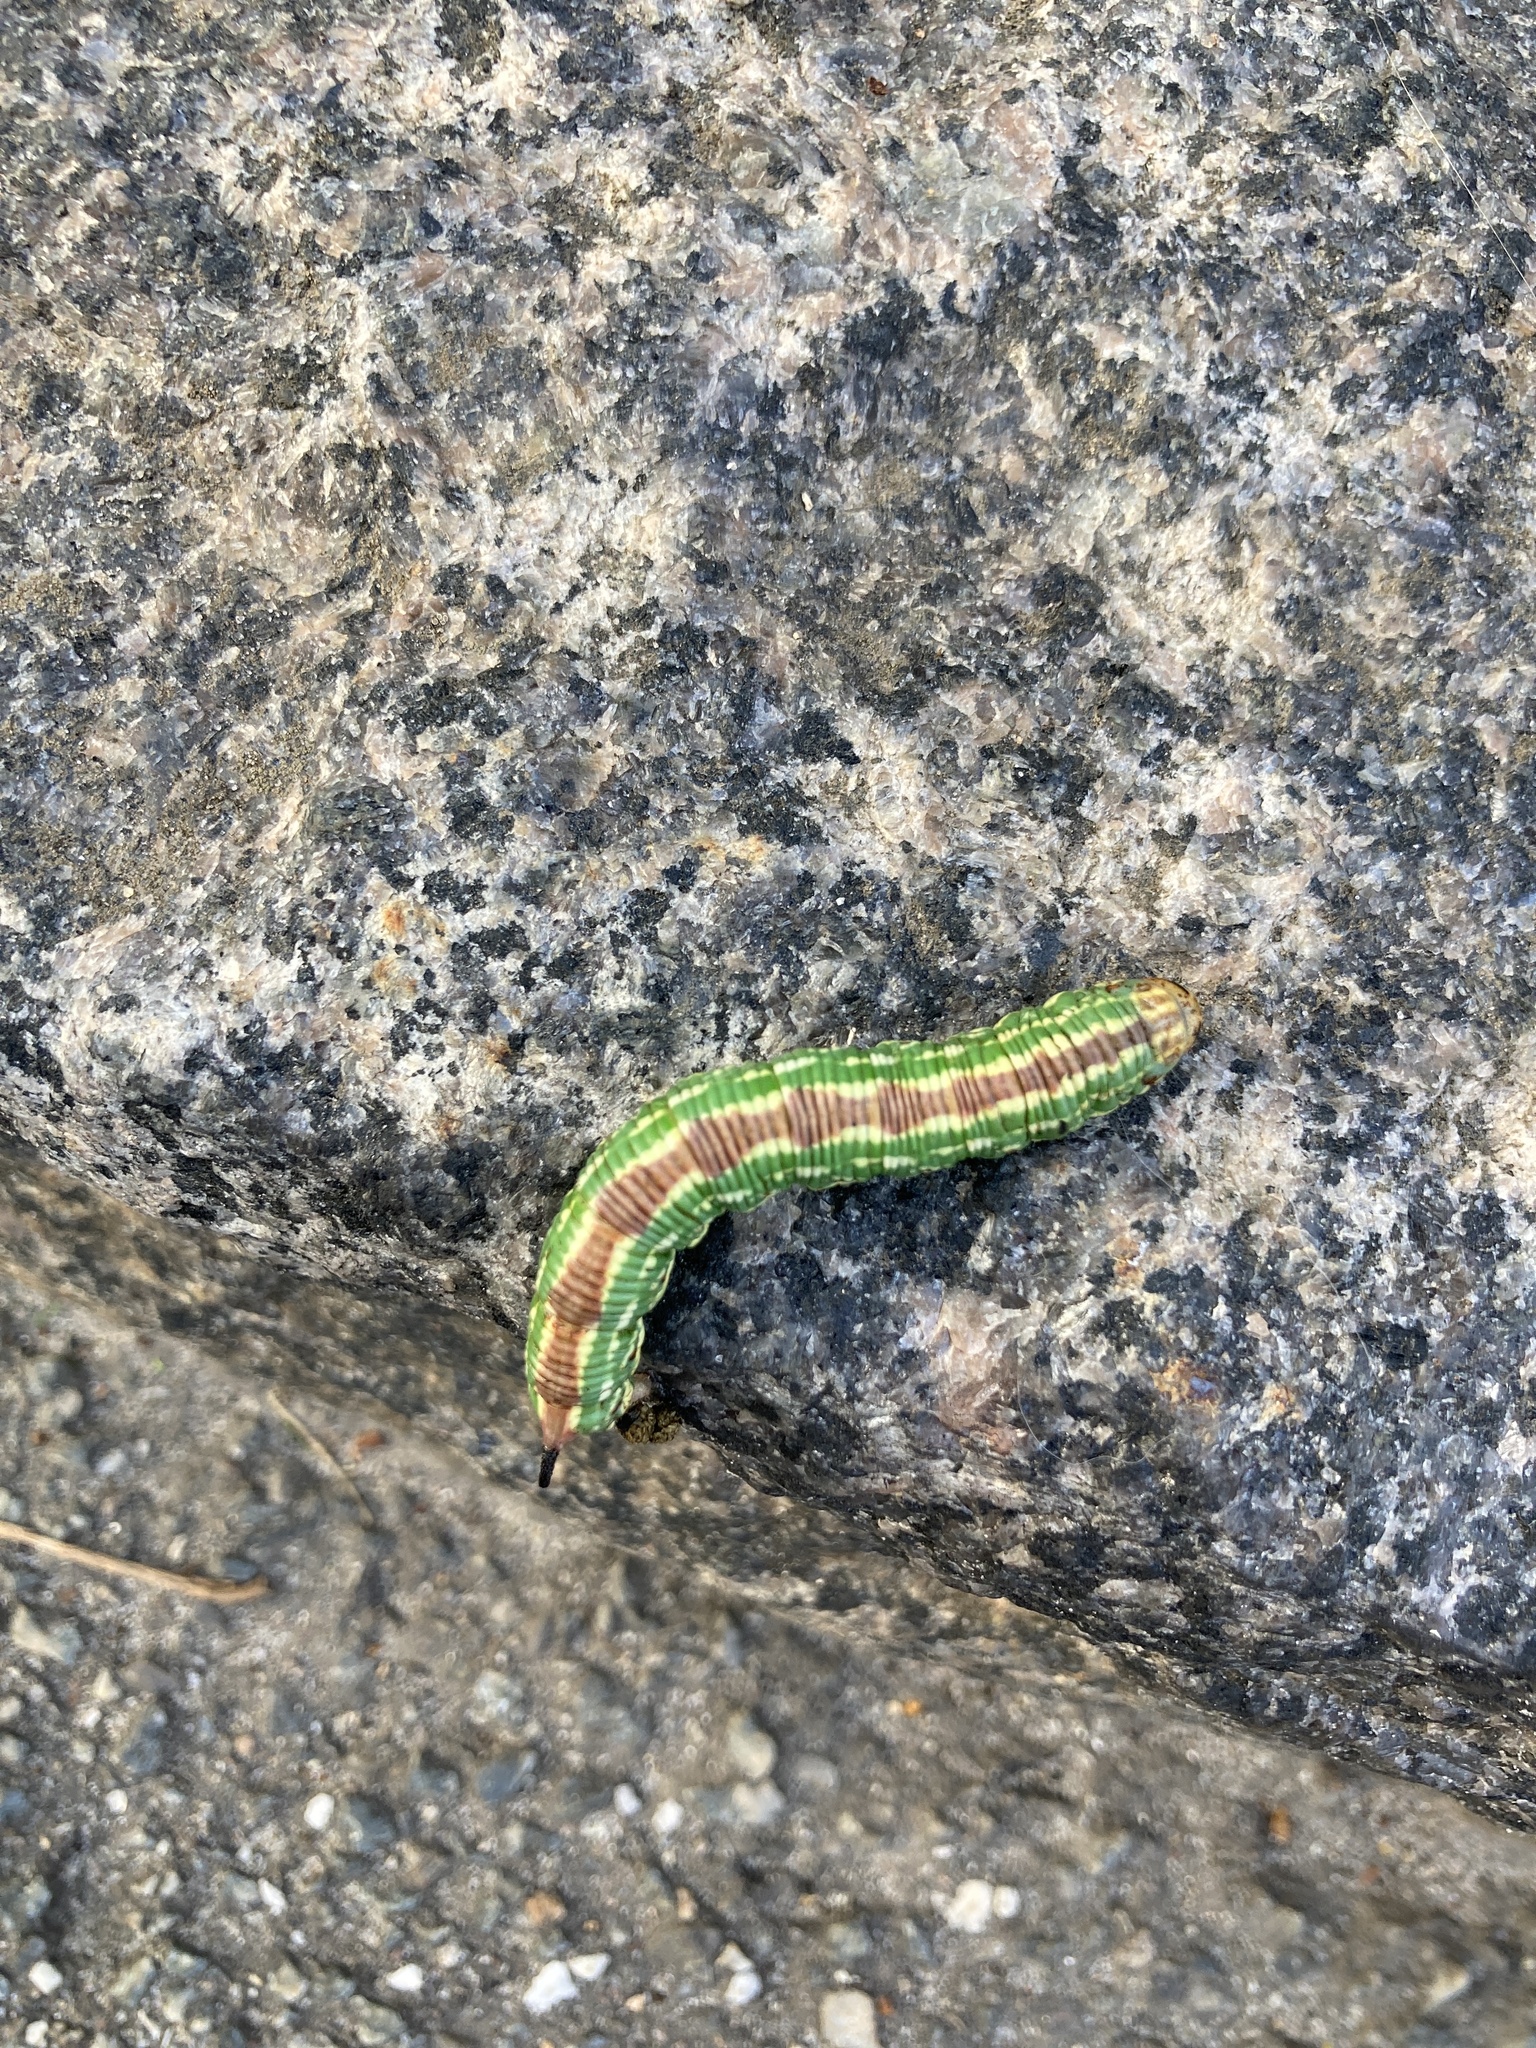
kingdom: Animalia
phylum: Arthropoda
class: Insecta
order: Lepidoptera
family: Sphingidae
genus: Sphinx
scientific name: Sphinx pinastri
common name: Pine hawk-moth
